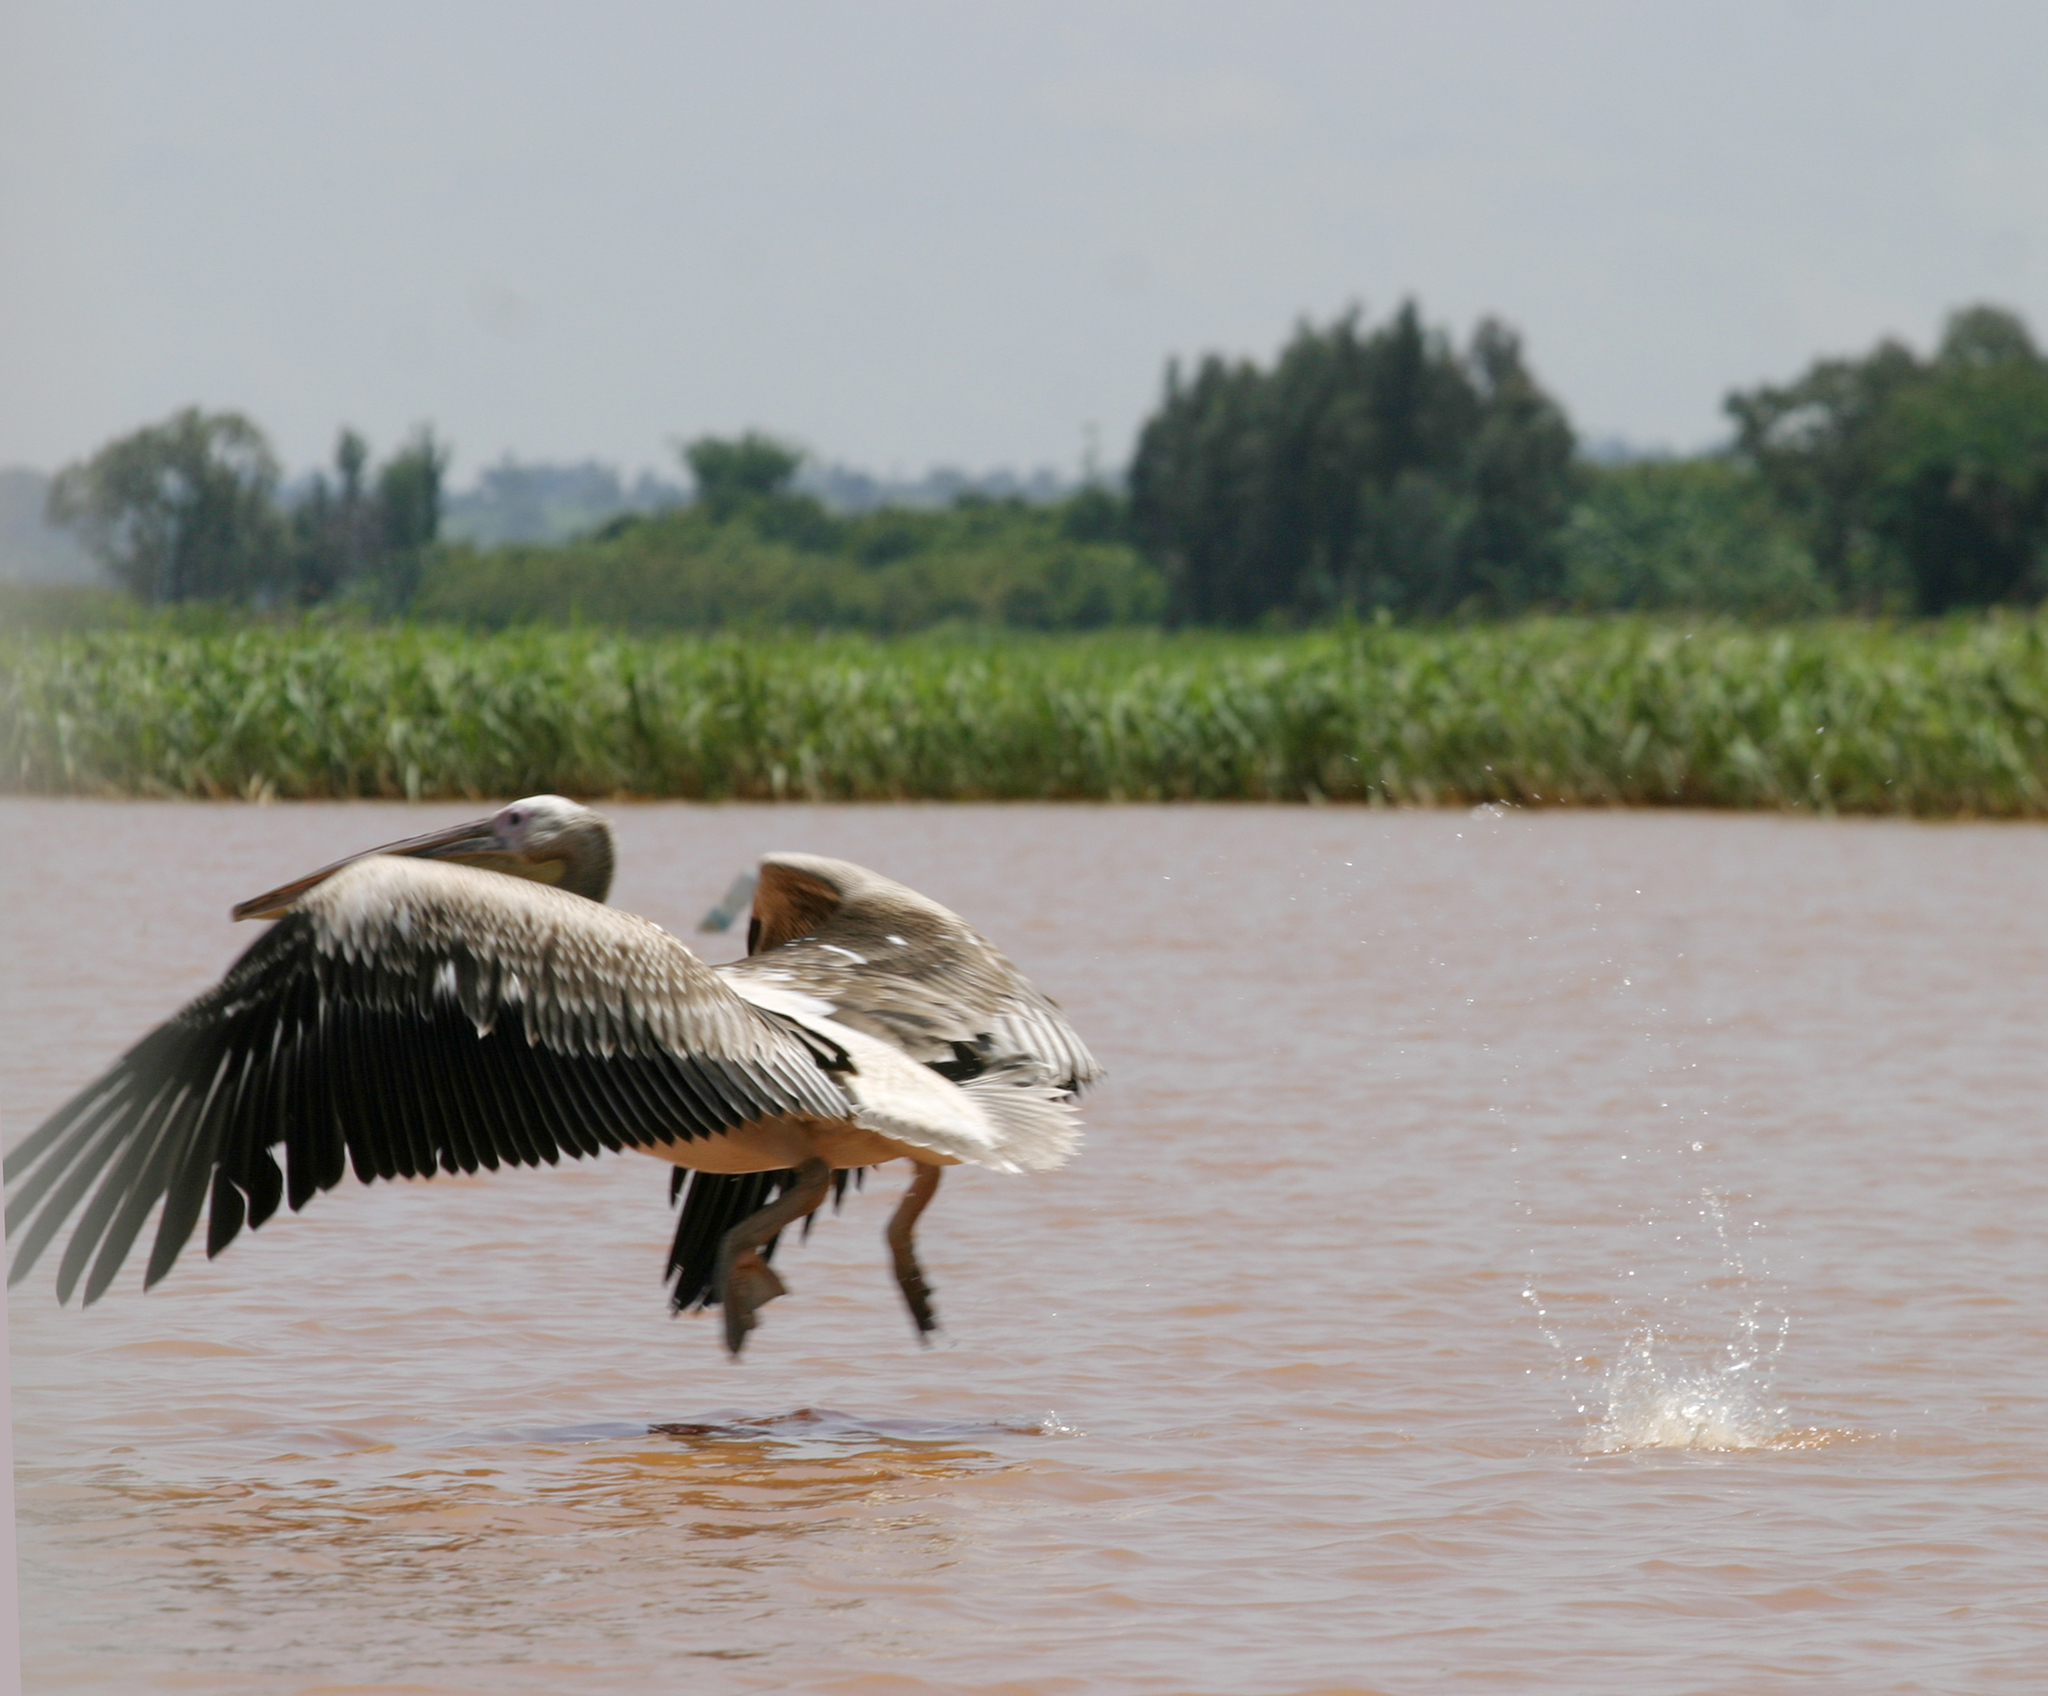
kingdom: Animalia
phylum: Chordata
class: Aves
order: Pelecaniformes
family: Pelecanidae
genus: Pelecanus
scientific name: Pelecanus onocrotalus
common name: Great white pelican
